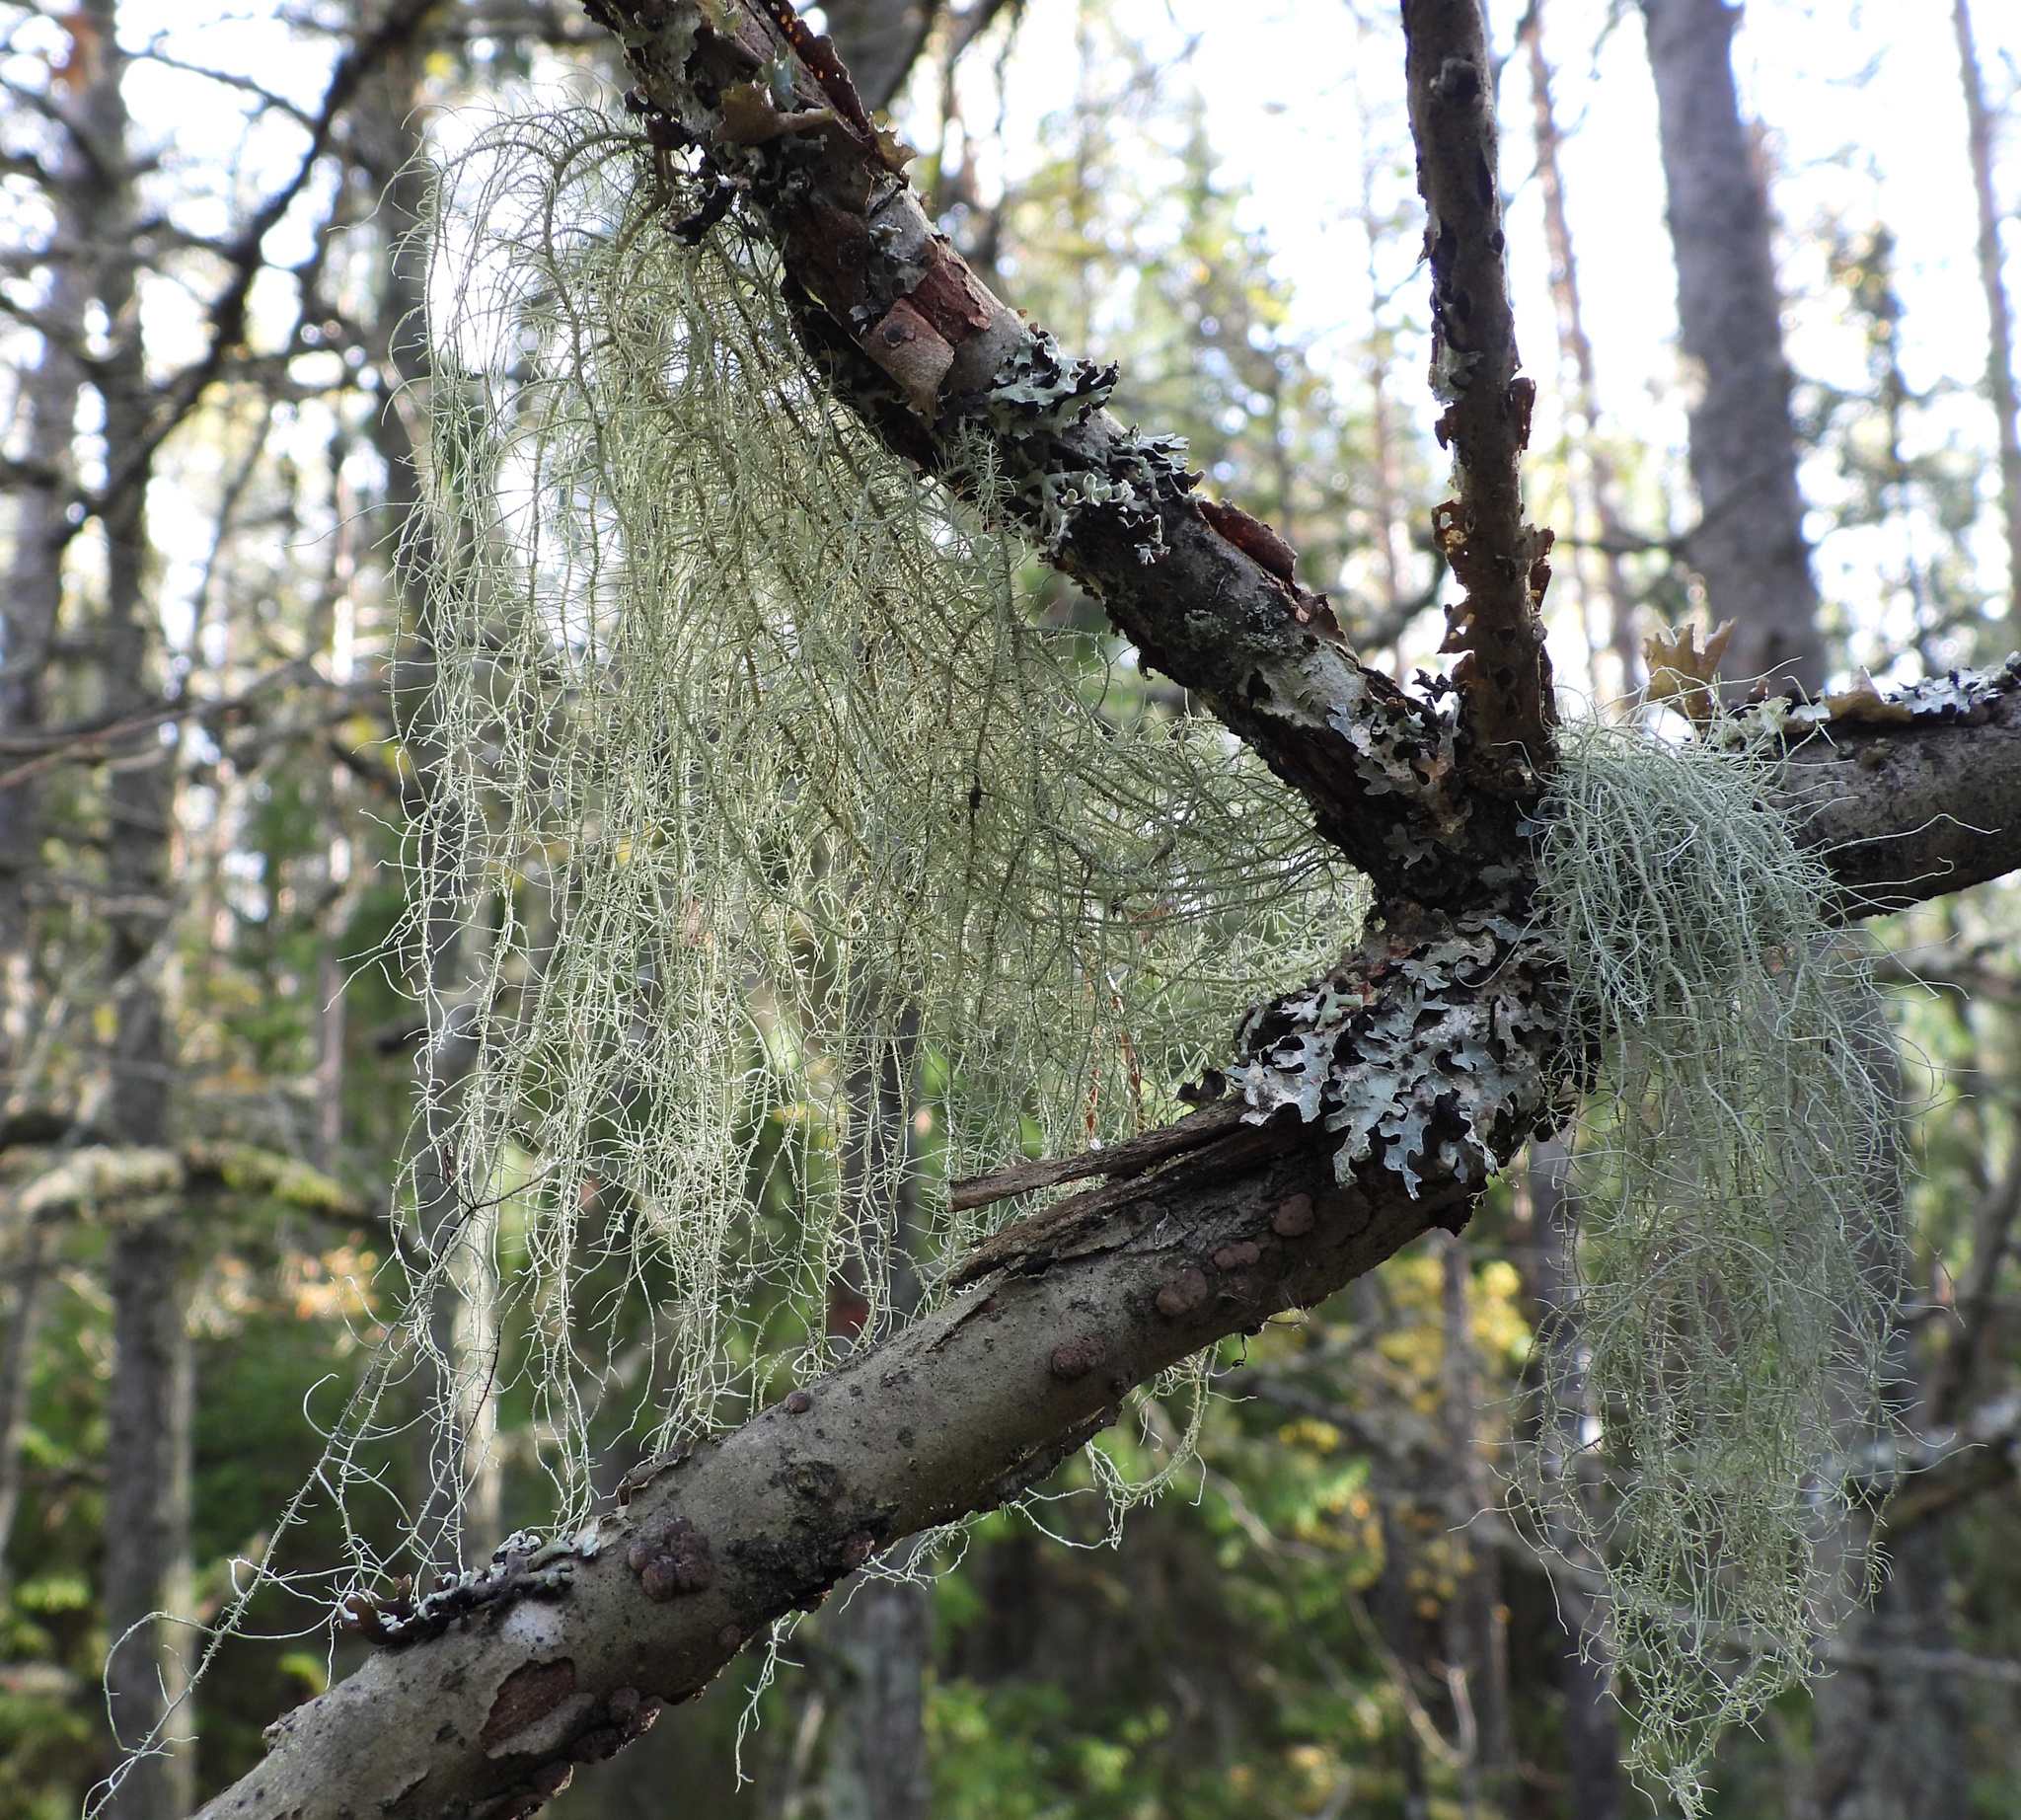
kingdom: Fungi
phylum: Ascomycota
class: Lecanoromycetes
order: Lecanorales
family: Parmeliaceae
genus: Usnea
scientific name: Usnea dasopoga
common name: Fishbone beard lichen
